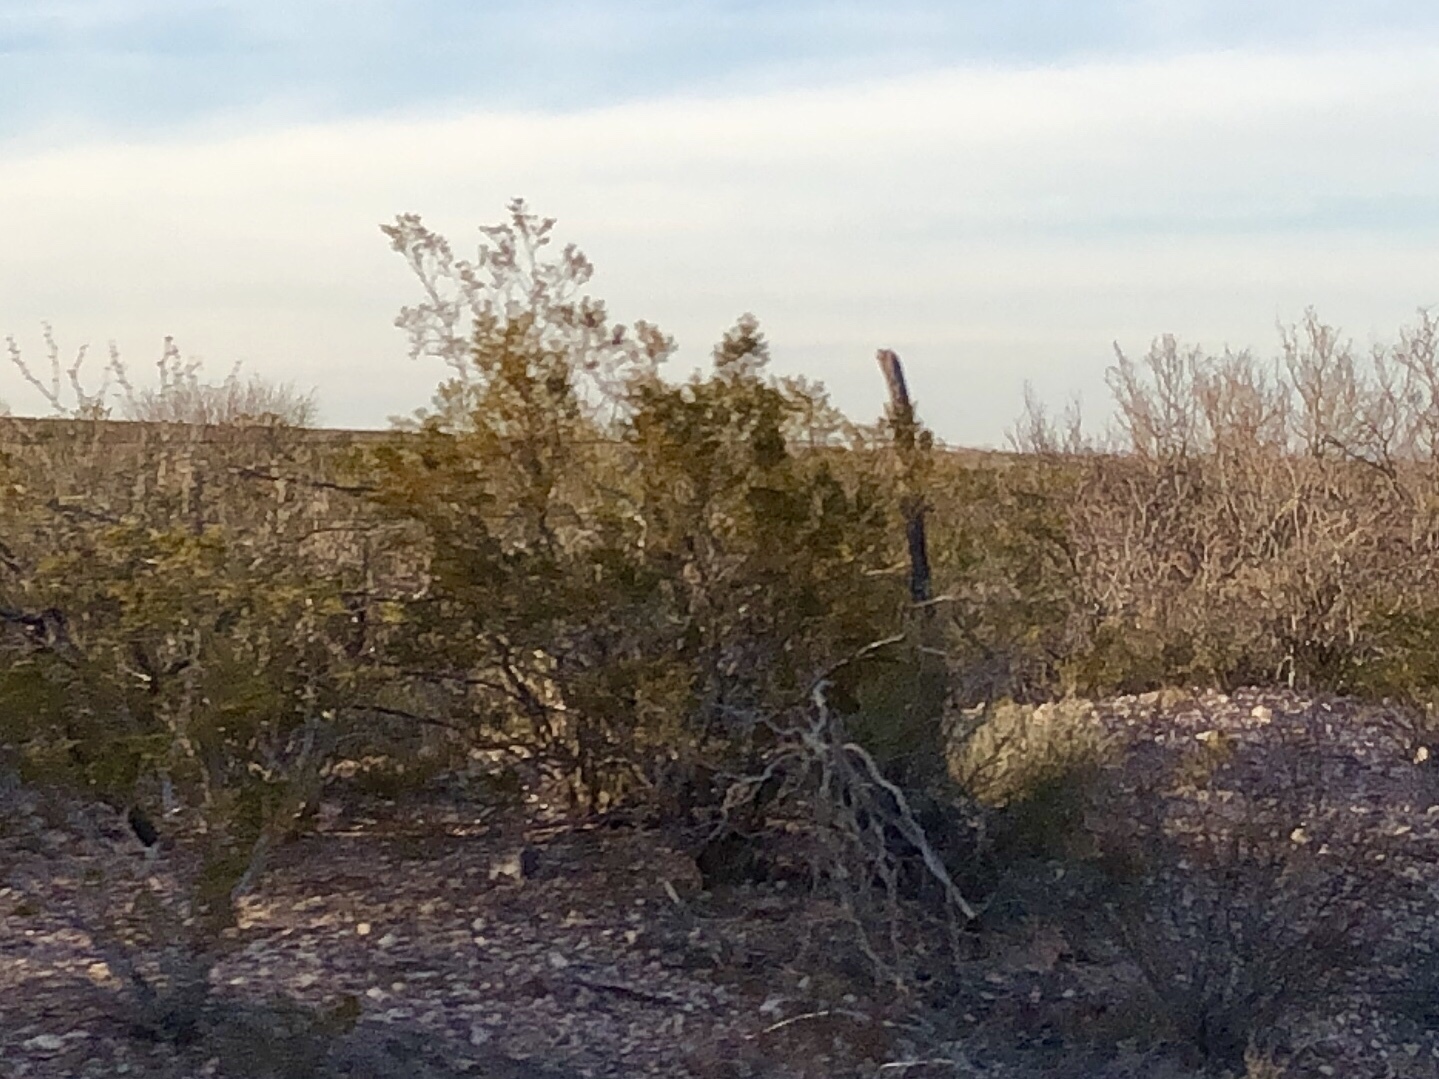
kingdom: Plantae
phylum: Tracheophyta
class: Magnoliopsida
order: Zygophyllales
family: Zygophyllaceae
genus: Larrea
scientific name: Larrea tridentata
